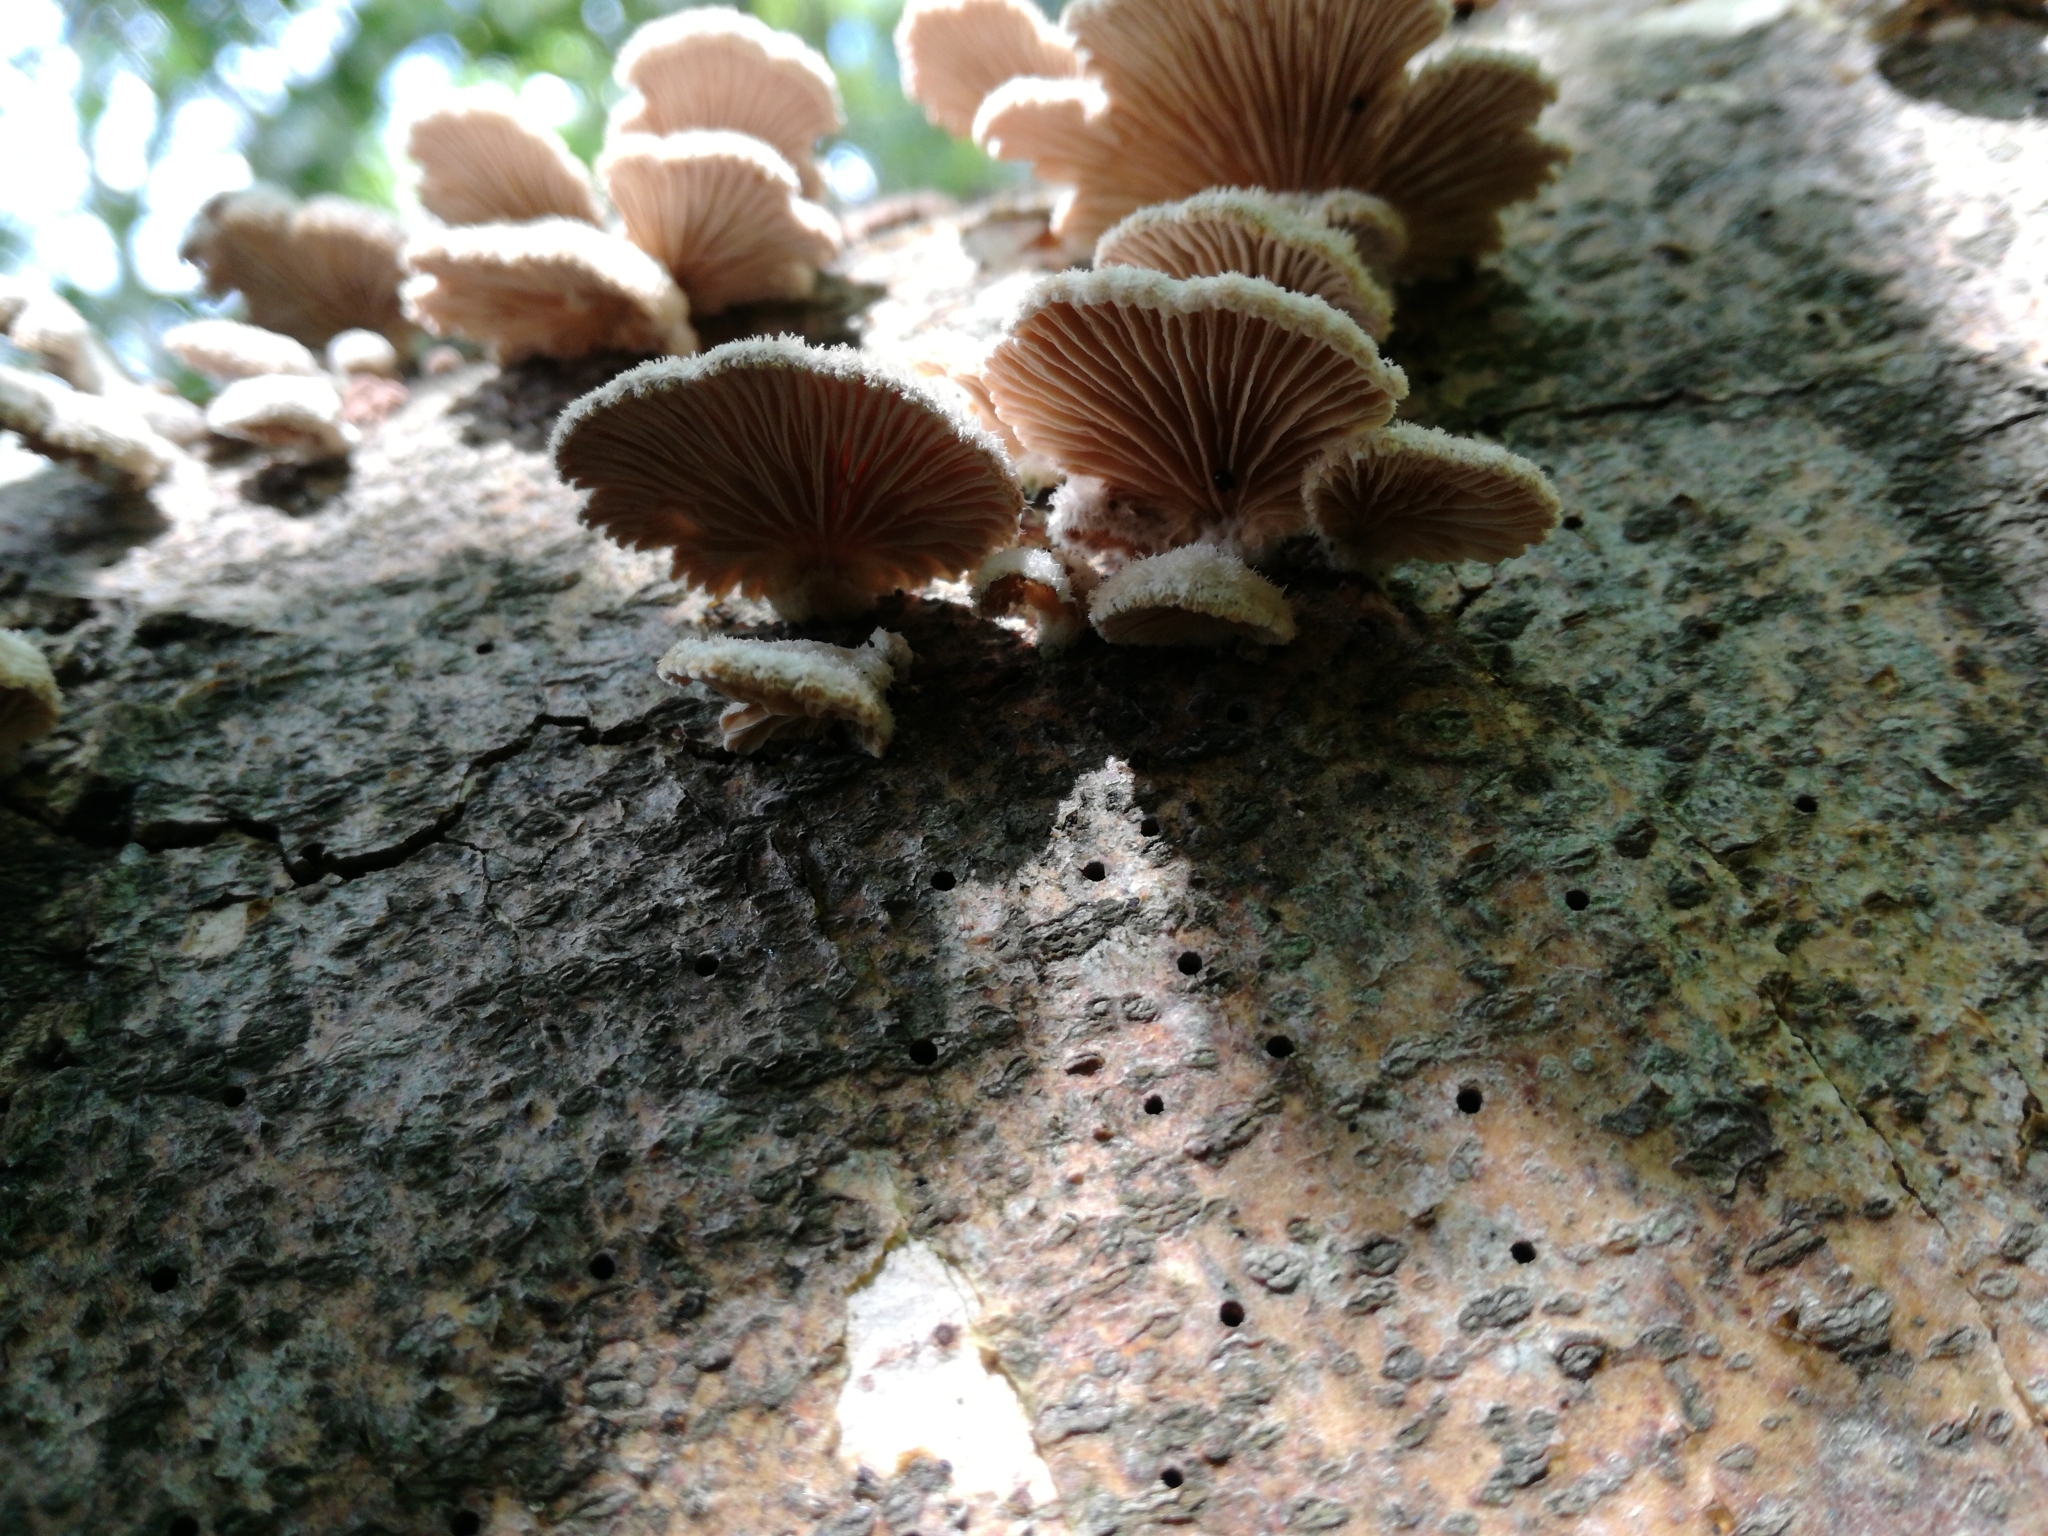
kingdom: Fungi
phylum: Basidiomycota
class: Agaricomycetes
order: Agaricales
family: Schizophyllaceae
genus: Schizophyllum
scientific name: Schizophyllum commune
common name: Common porecrust
